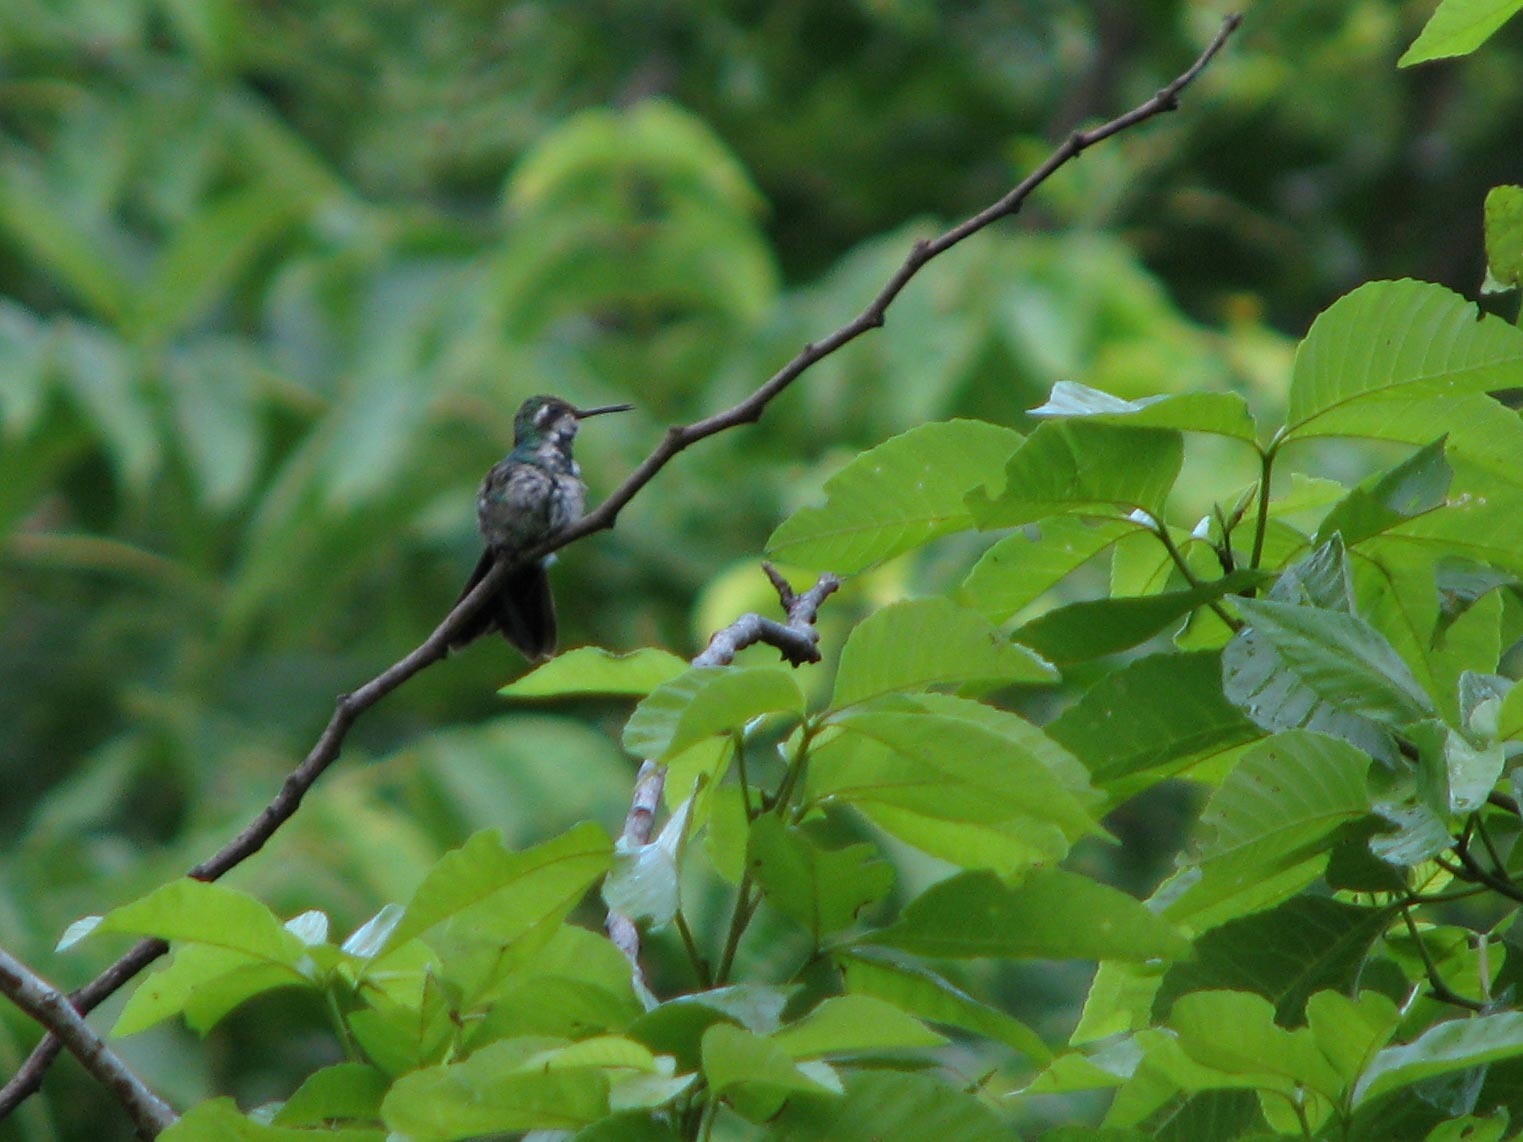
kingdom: Animalia
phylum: Chordata
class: Aves
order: Apodiformes
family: Trochilidae
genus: Cynanthus
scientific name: Cynanthus canivetii
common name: Canivet's emerald
